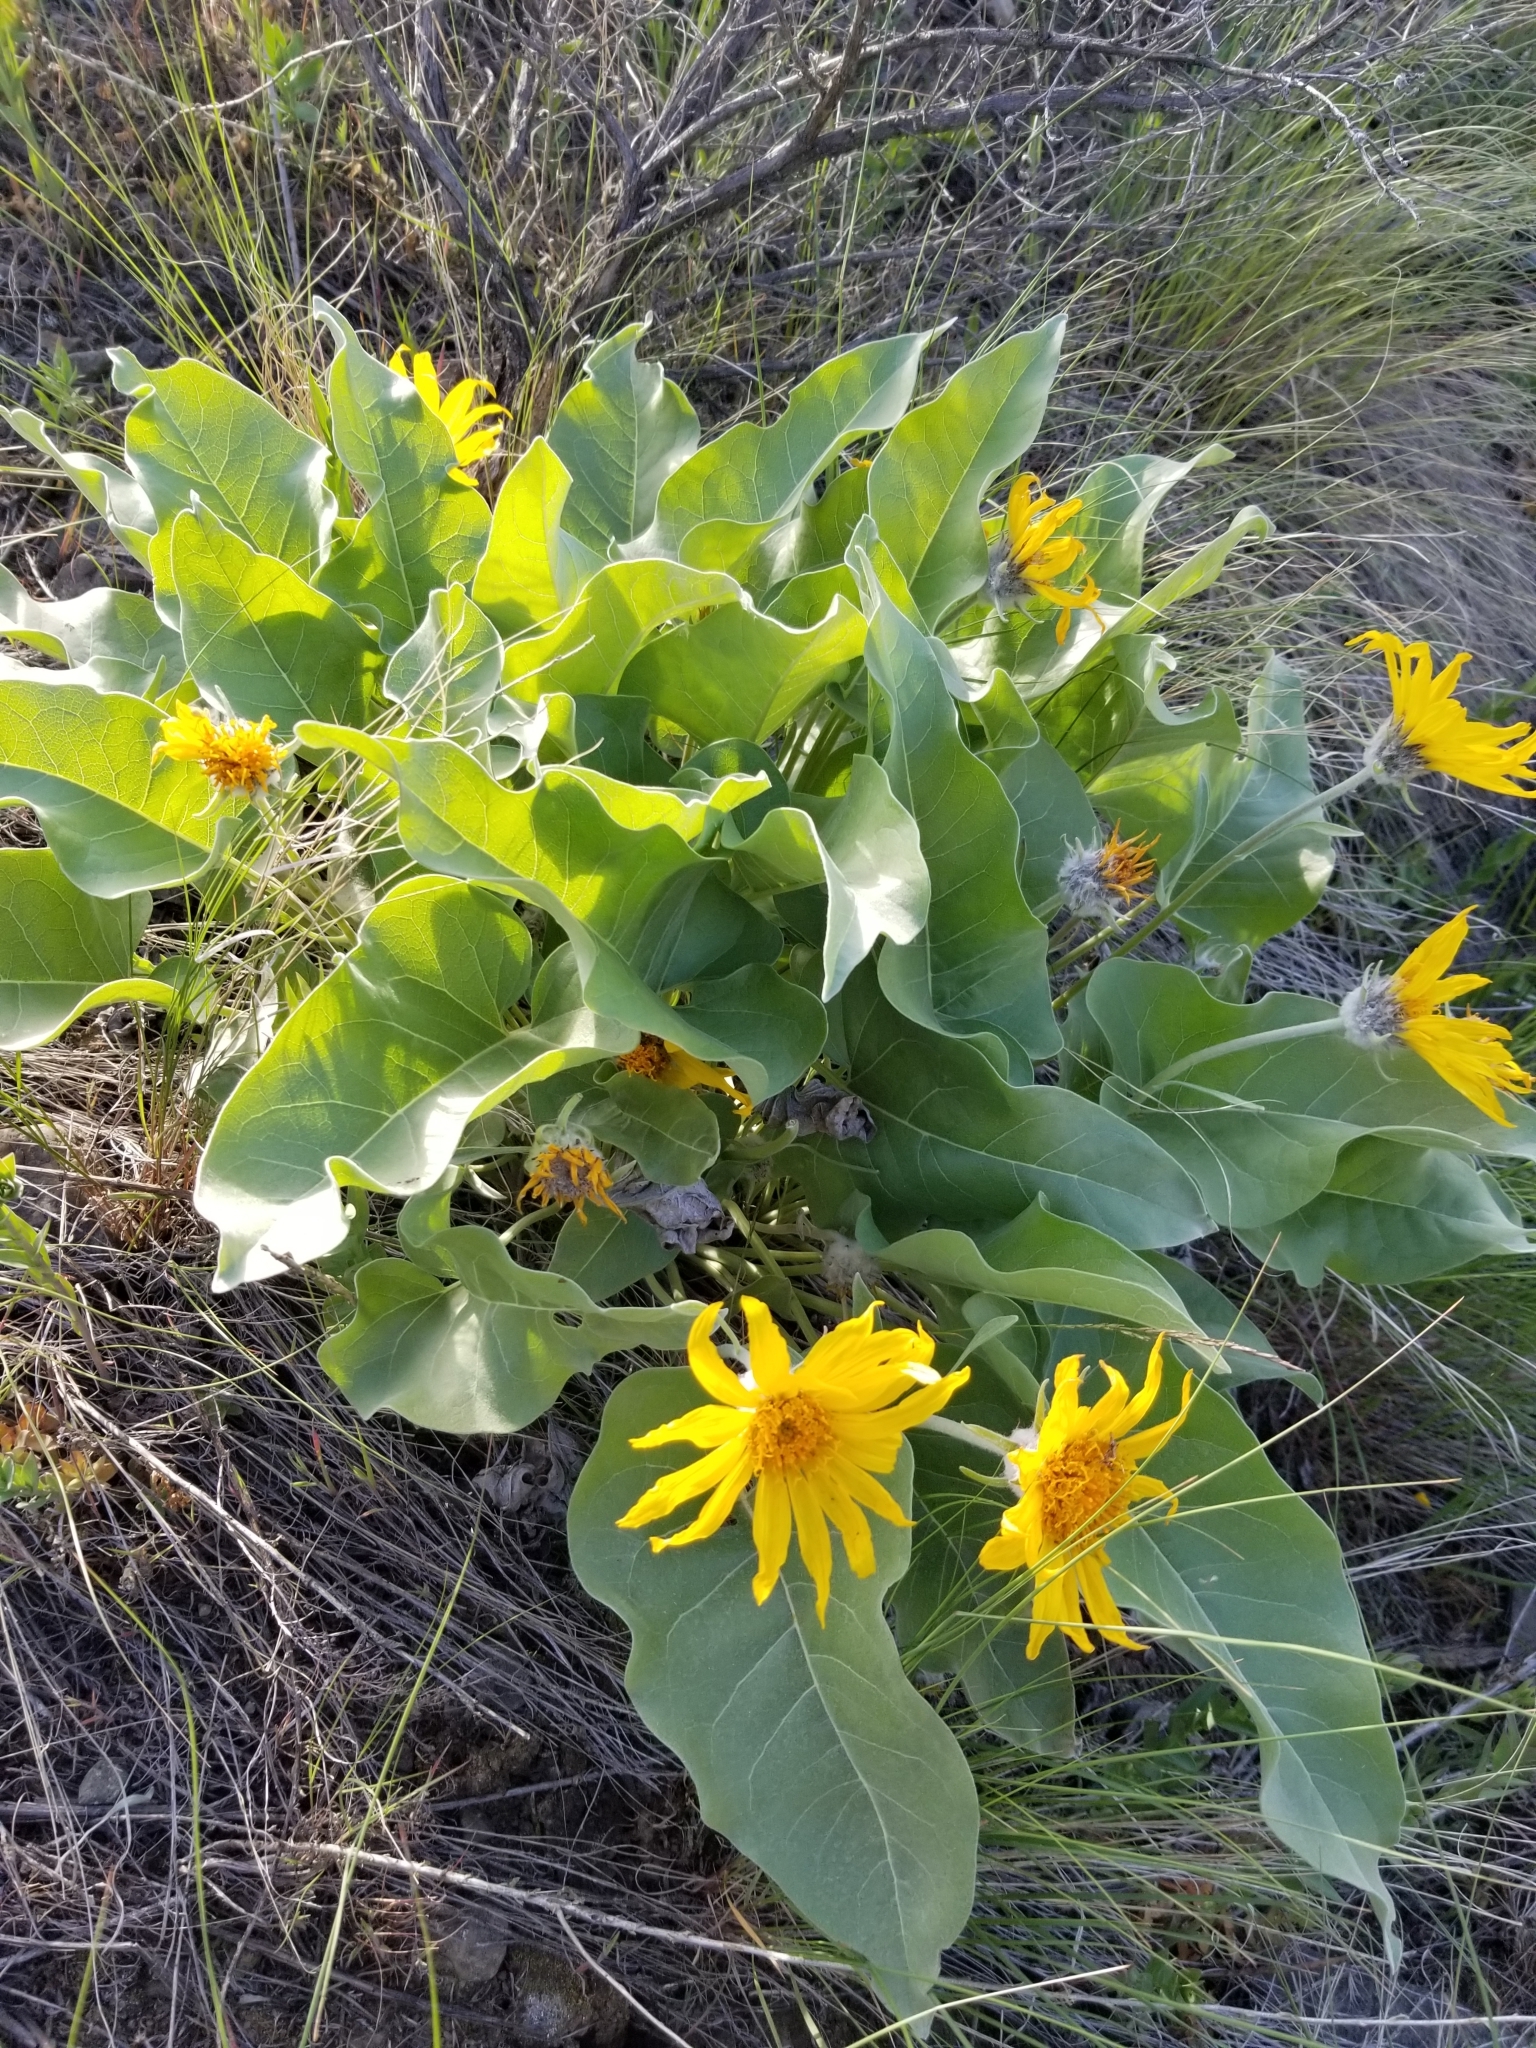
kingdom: Plantae
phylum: Tracheophyta
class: Magnoliopsida
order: Asterales
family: Asteraceae
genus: Wyethia
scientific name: Wyethia sagittata
